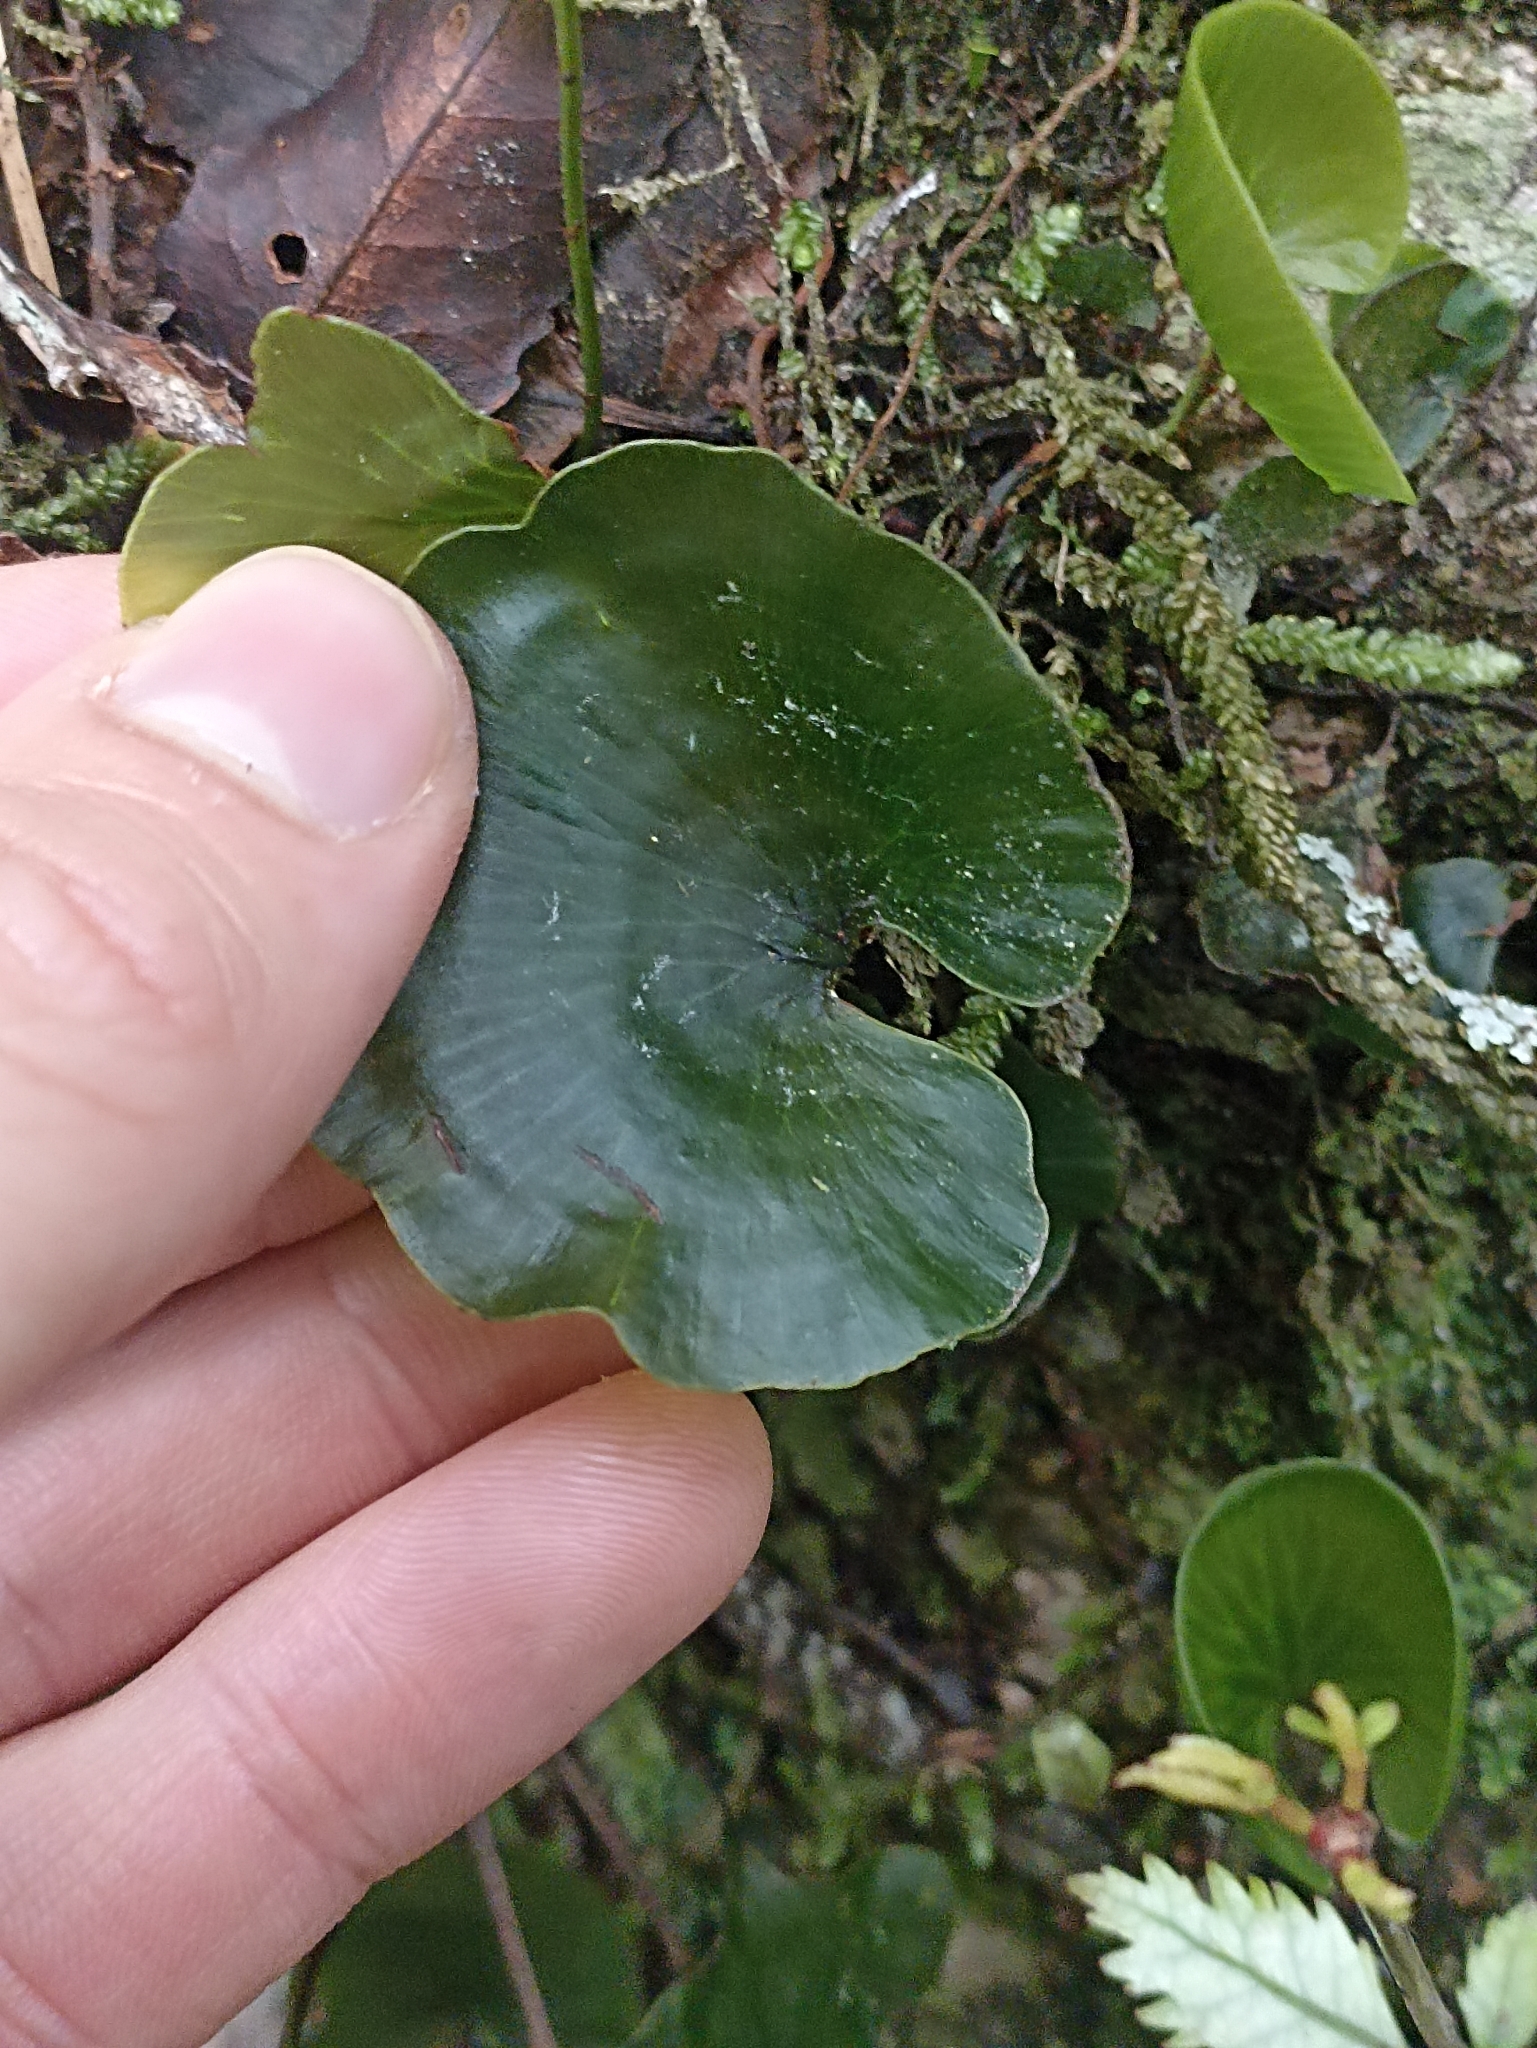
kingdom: Plantae
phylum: Tracheophyta
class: Polypodiopsida
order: Hymenophyllales
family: Hymenophyllaceae
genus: Hymenophyllum
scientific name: Hymenophyllum nephrophyllum
